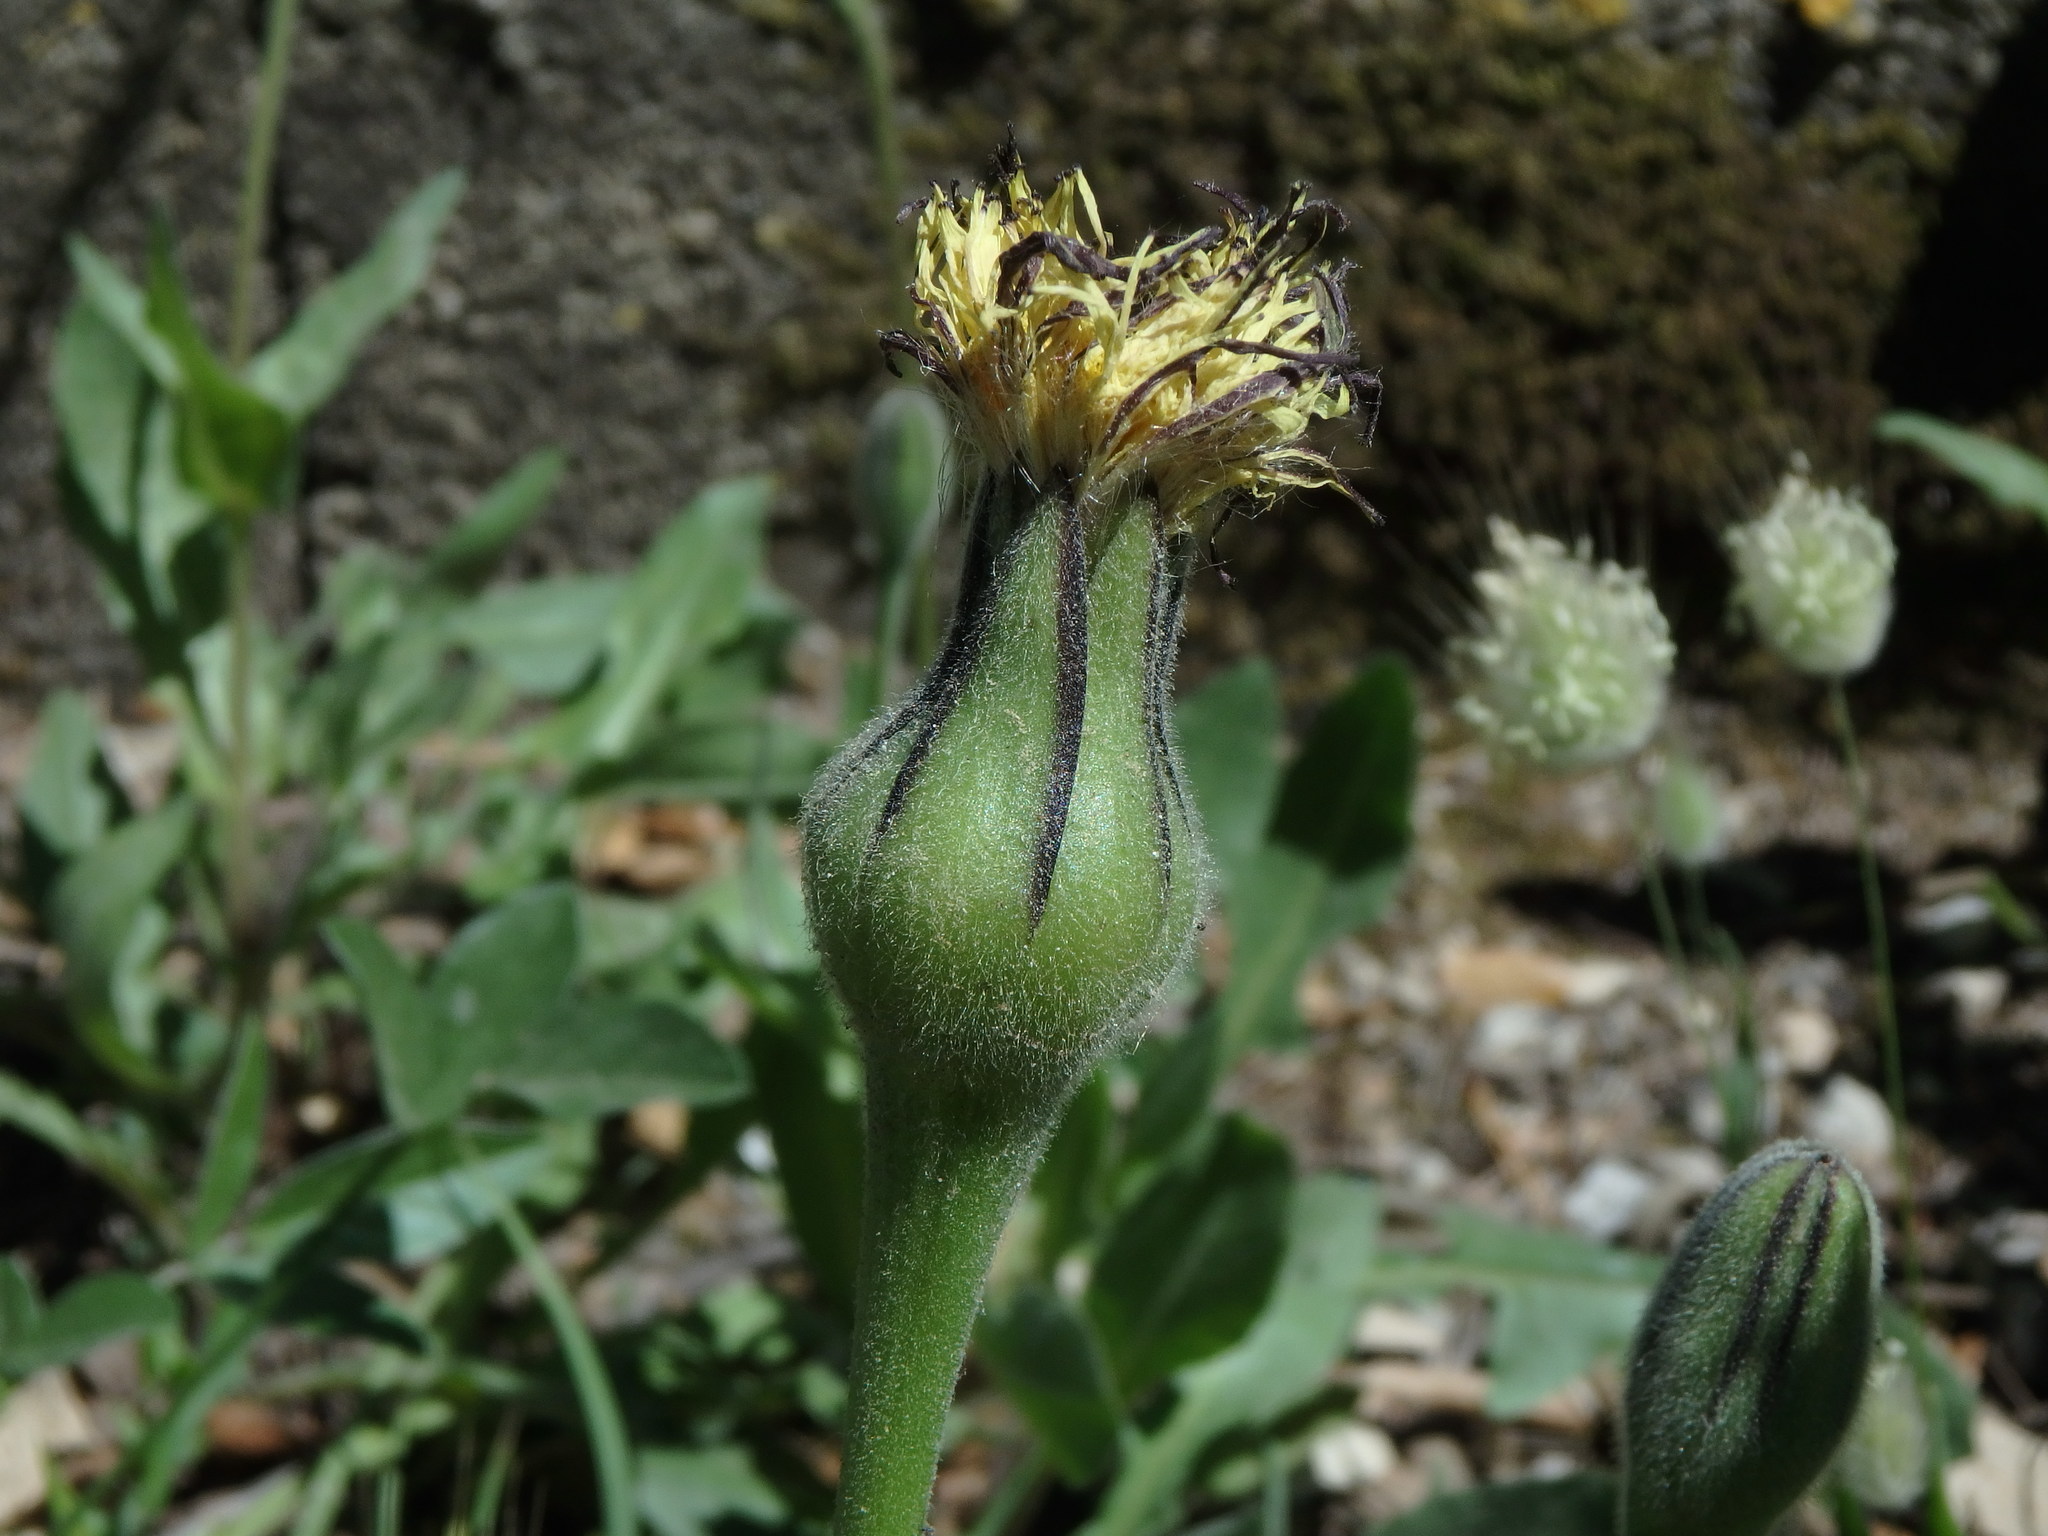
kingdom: Plantae
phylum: Tracheophyta
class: Magnoliopsida
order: Asterales
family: Asteraceae
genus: Urospermum
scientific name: Urospermum dalechampii
